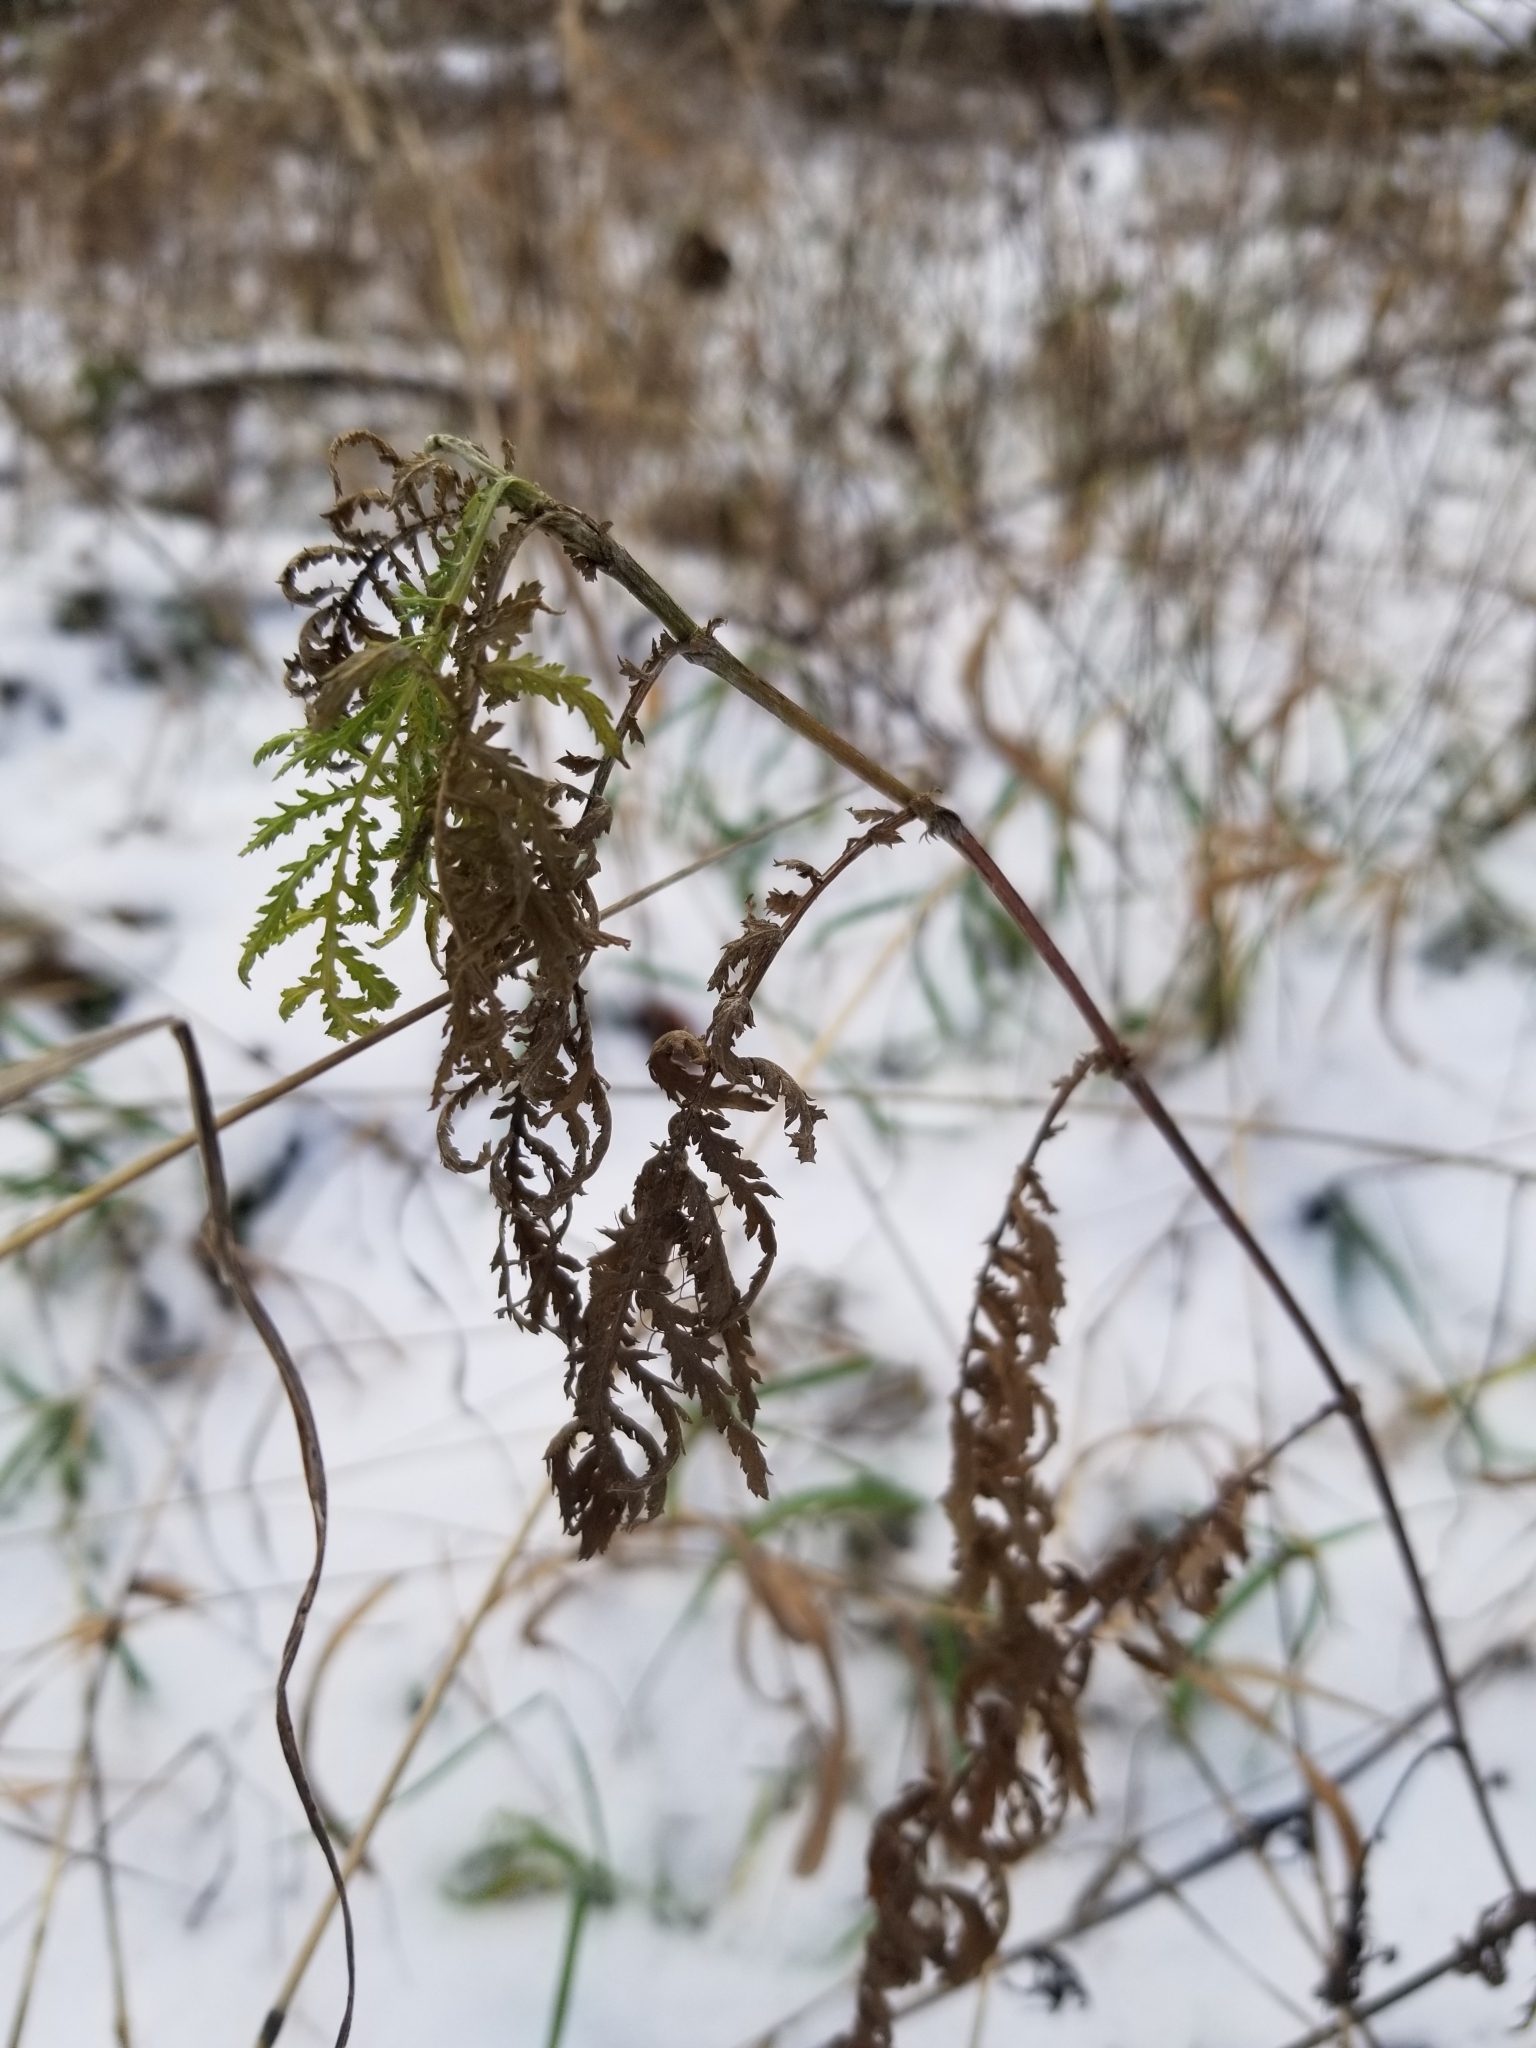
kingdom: Plantae
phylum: Tracheophyta
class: Magnoliopsida
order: Asterales
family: Asteraceae
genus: Tanacetum
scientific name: Tanacetum vulgare
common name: Common tansy
